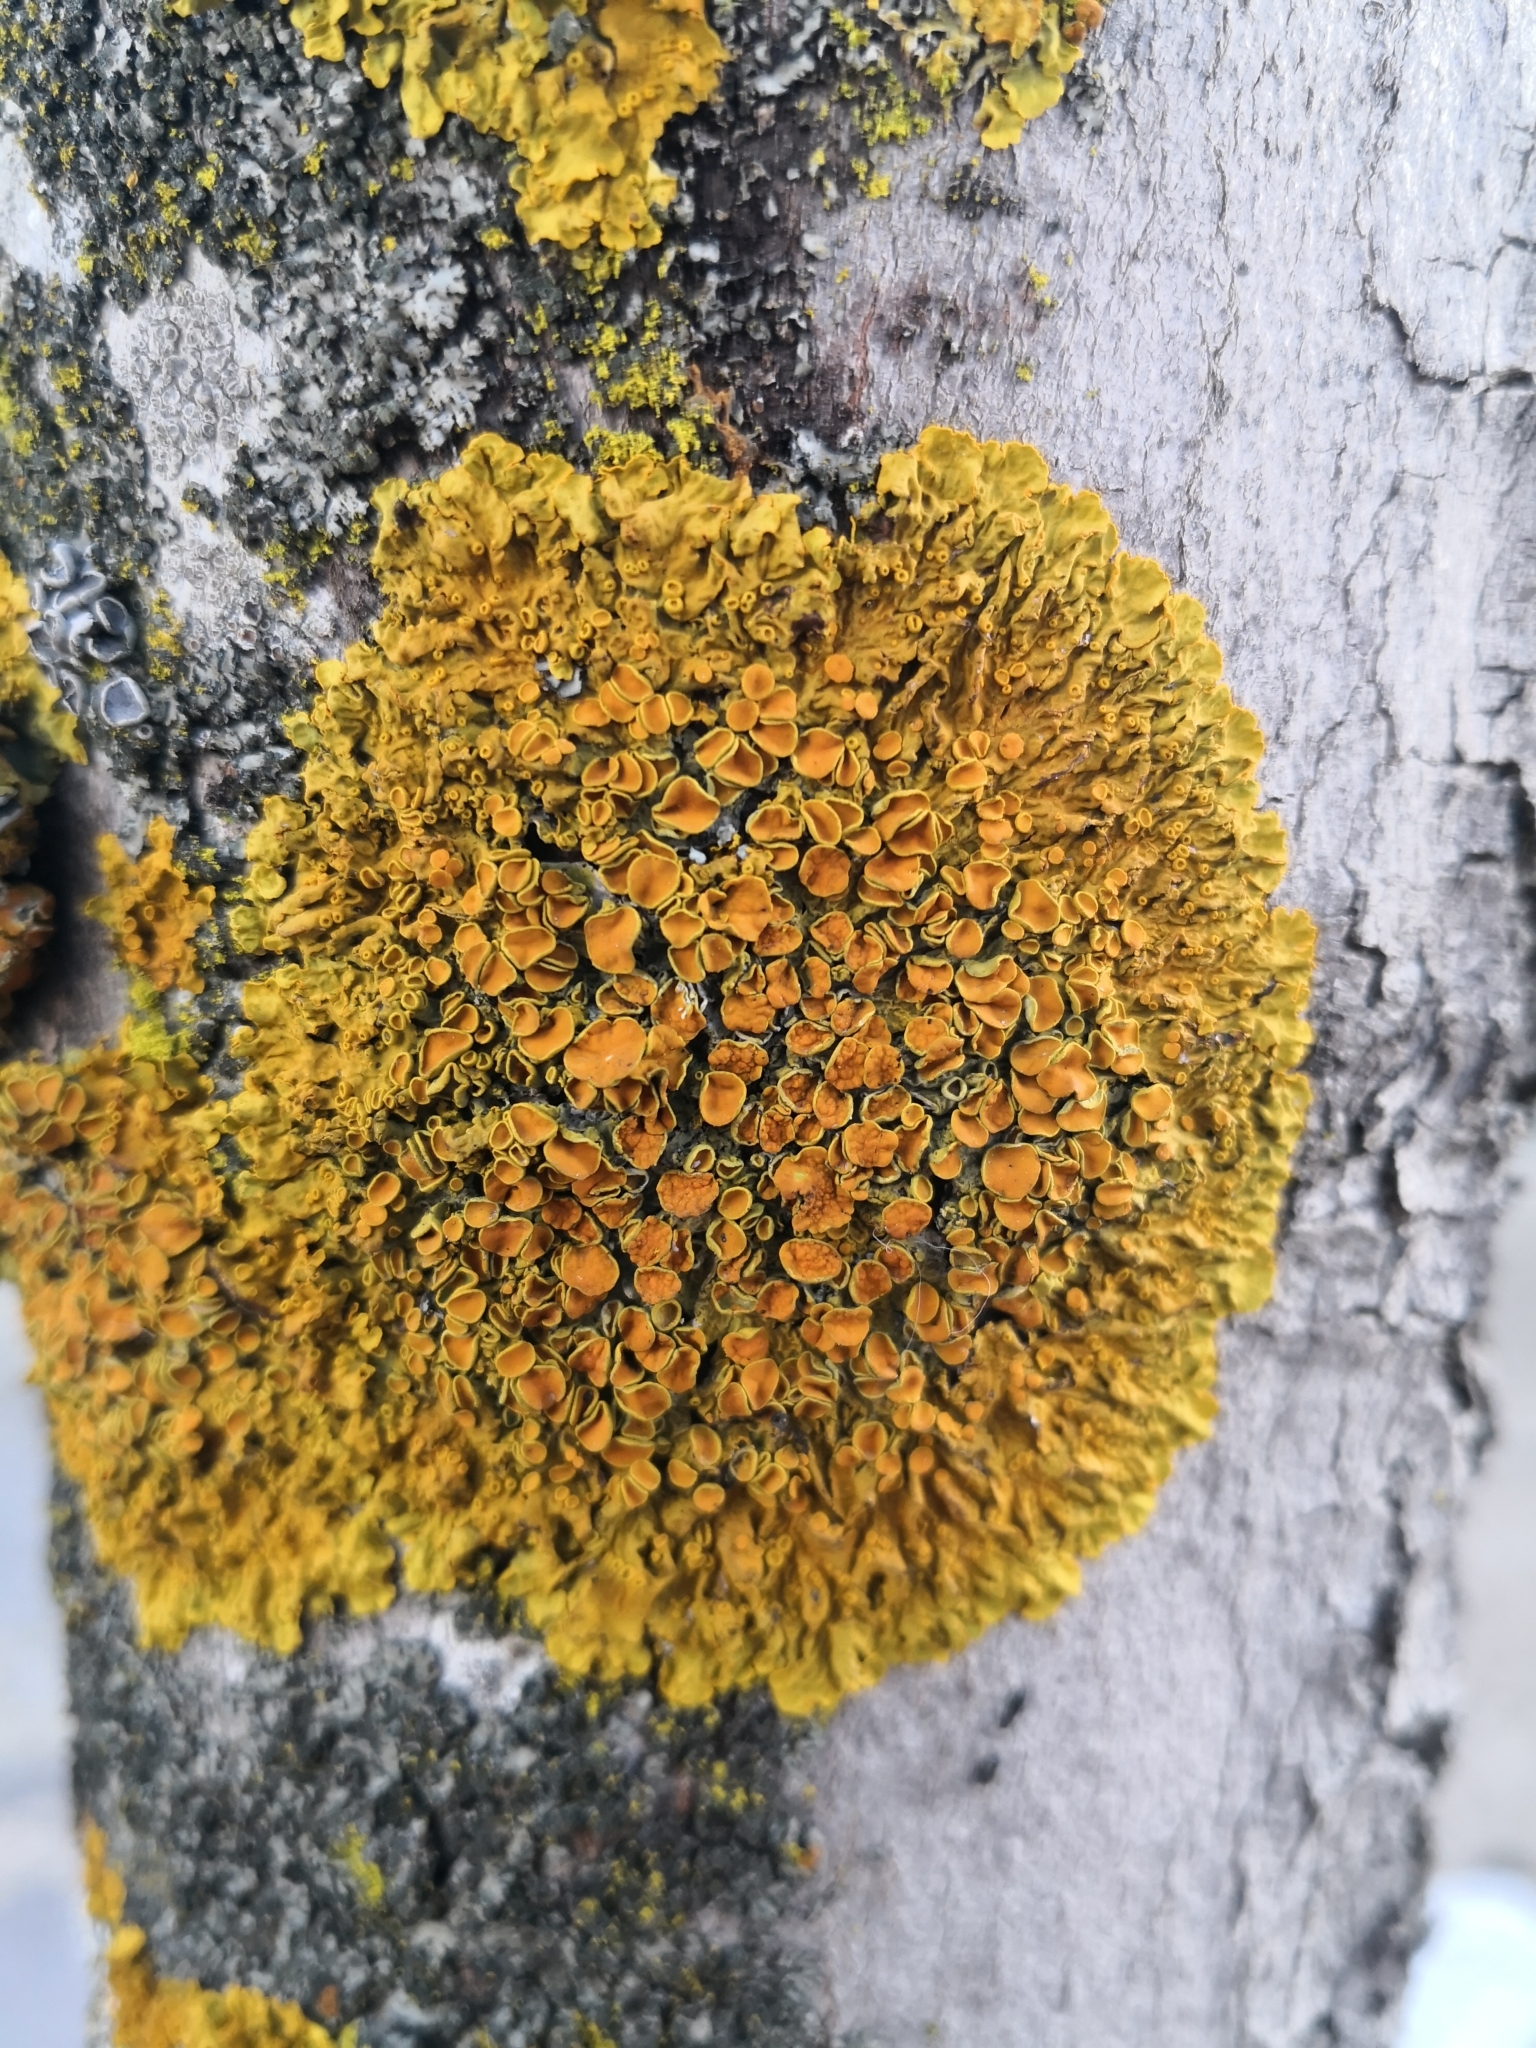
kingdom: Fungi
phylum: Ascomycota
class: Lecanoromycetes
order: Teloschistales
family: Teloschistaceae
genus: Xanthoria
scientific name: Xanthoria parietina
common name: Common orange lichen
